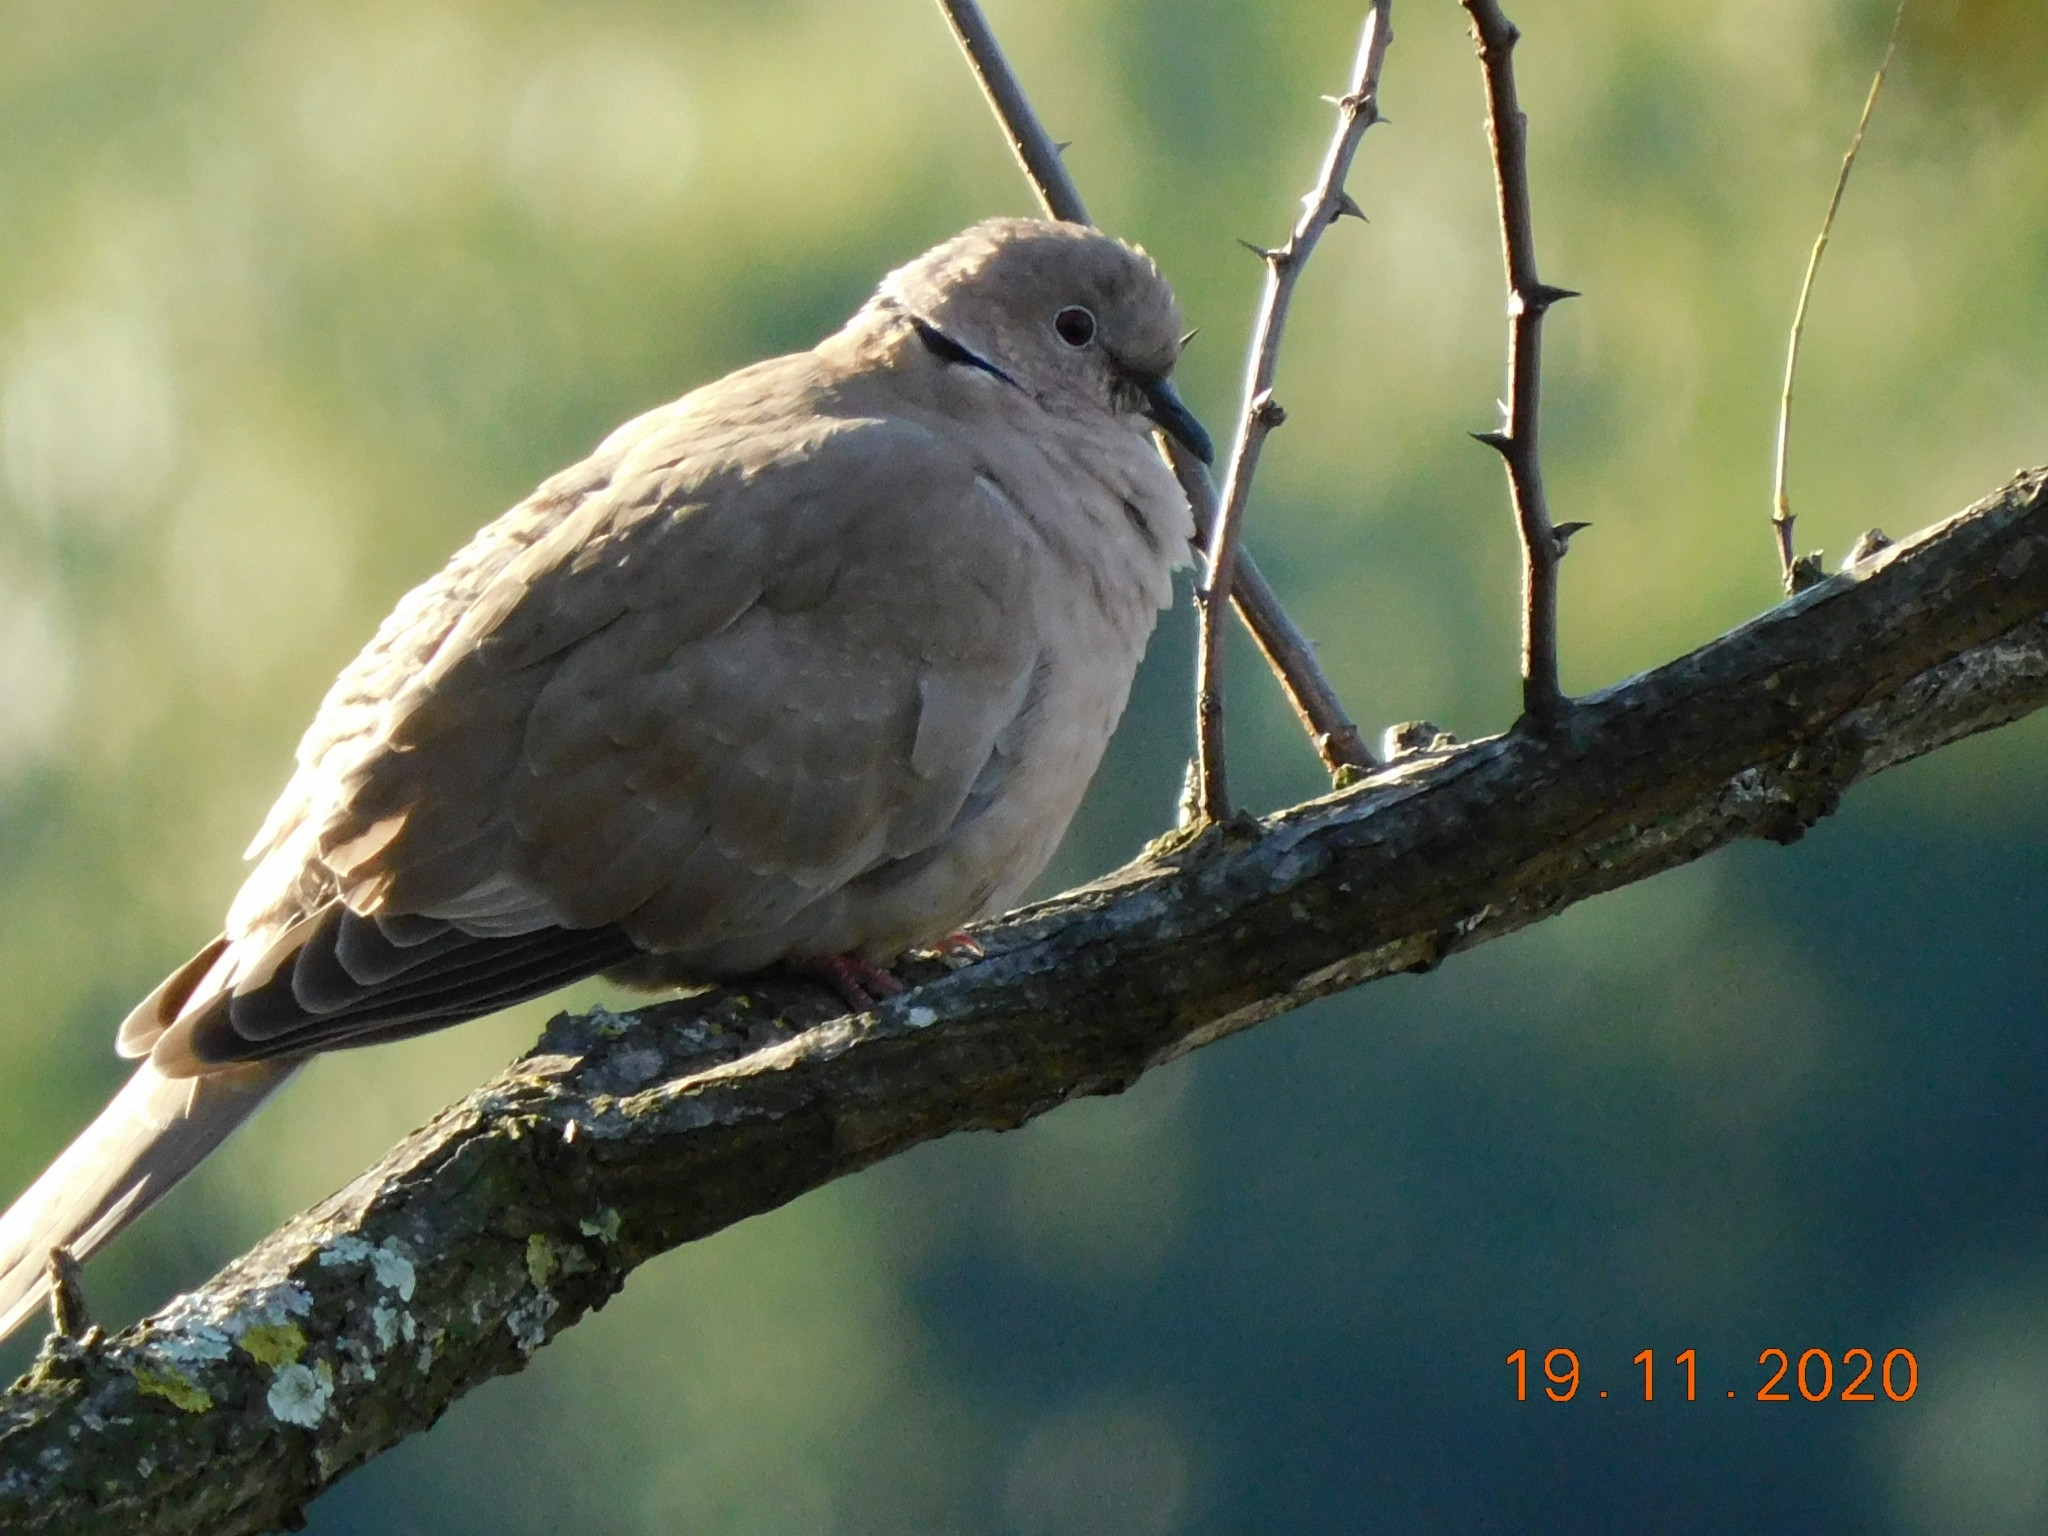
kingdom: Animalia
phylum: Chordata
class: Aves
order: Columbiformes
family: Columbidae
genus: Streptopelia
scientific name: Streptopelia decaocto
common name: Eurasian collared dove
